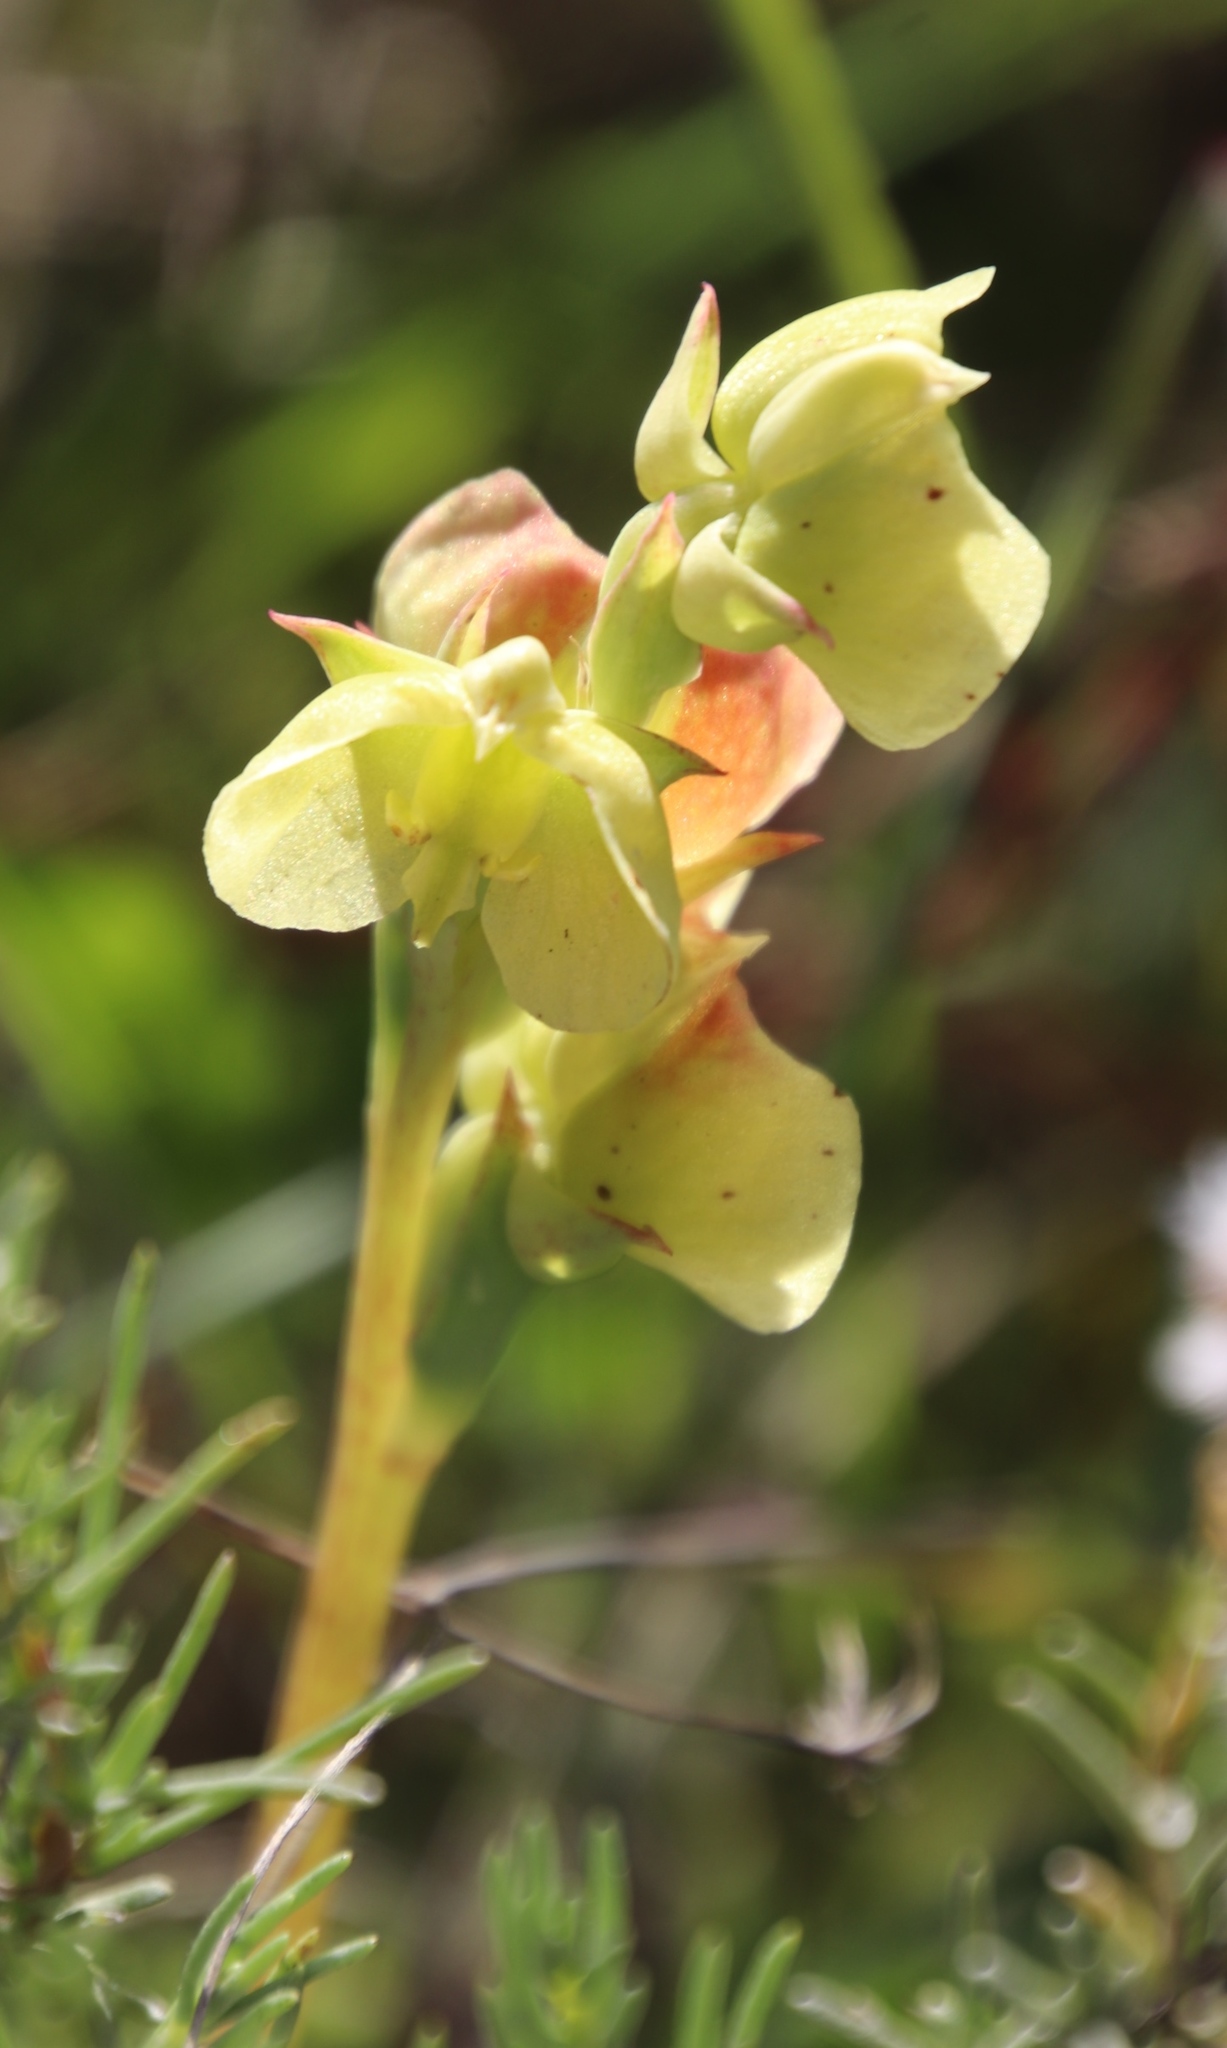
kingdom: Plantae
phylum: Tracheophyta
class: Liliopsida
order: Asparagales
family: Orchidaceae
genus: Pterygodium
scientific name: Pterygodium catholicum
